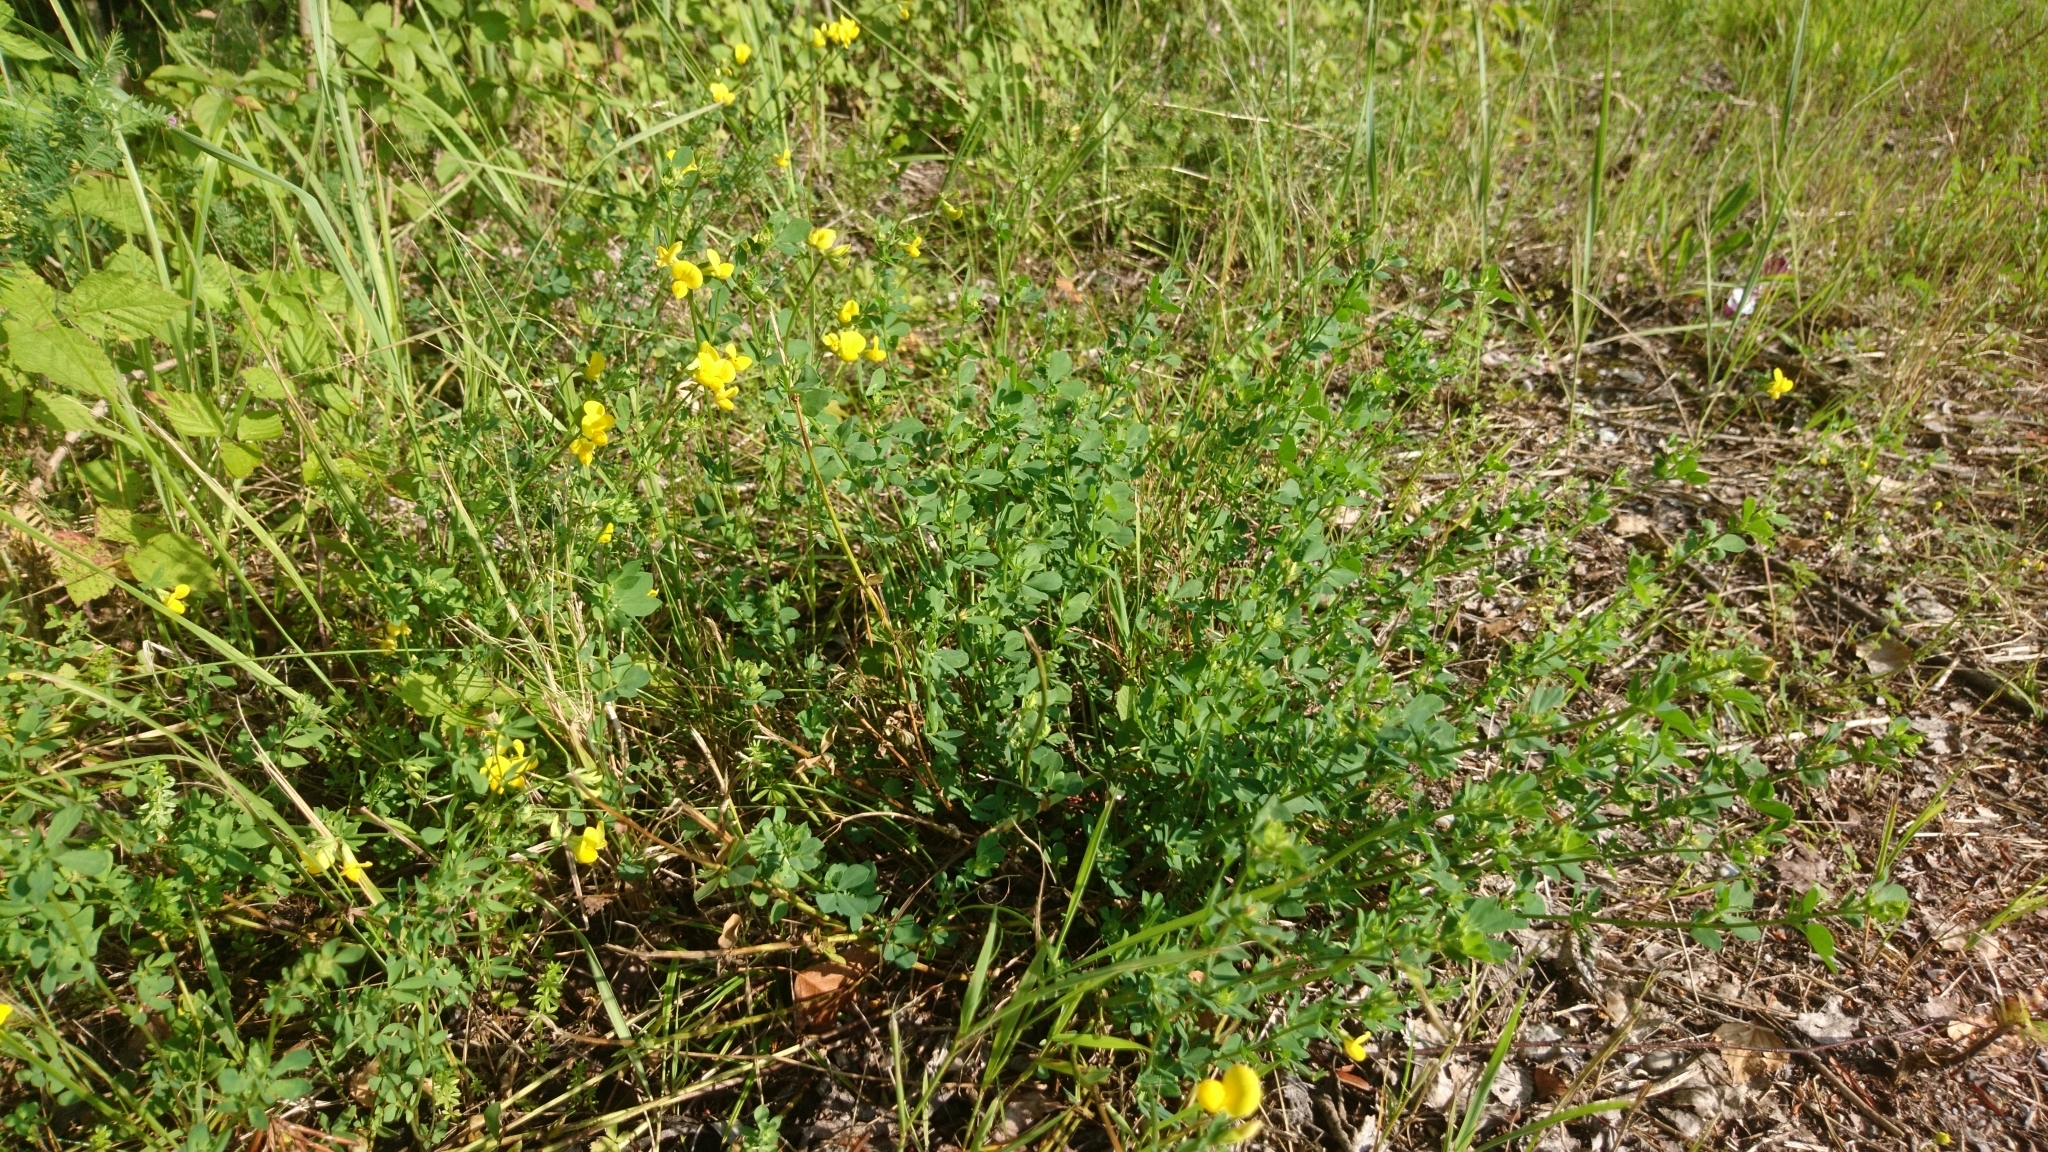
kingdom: Plantae
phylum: Tracheophyta
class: Magnoliopsida
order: Fabales
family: Fabaceae
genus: Lotus
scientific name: Lotus corniculatus
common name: Common bird's-foot-trefoil
